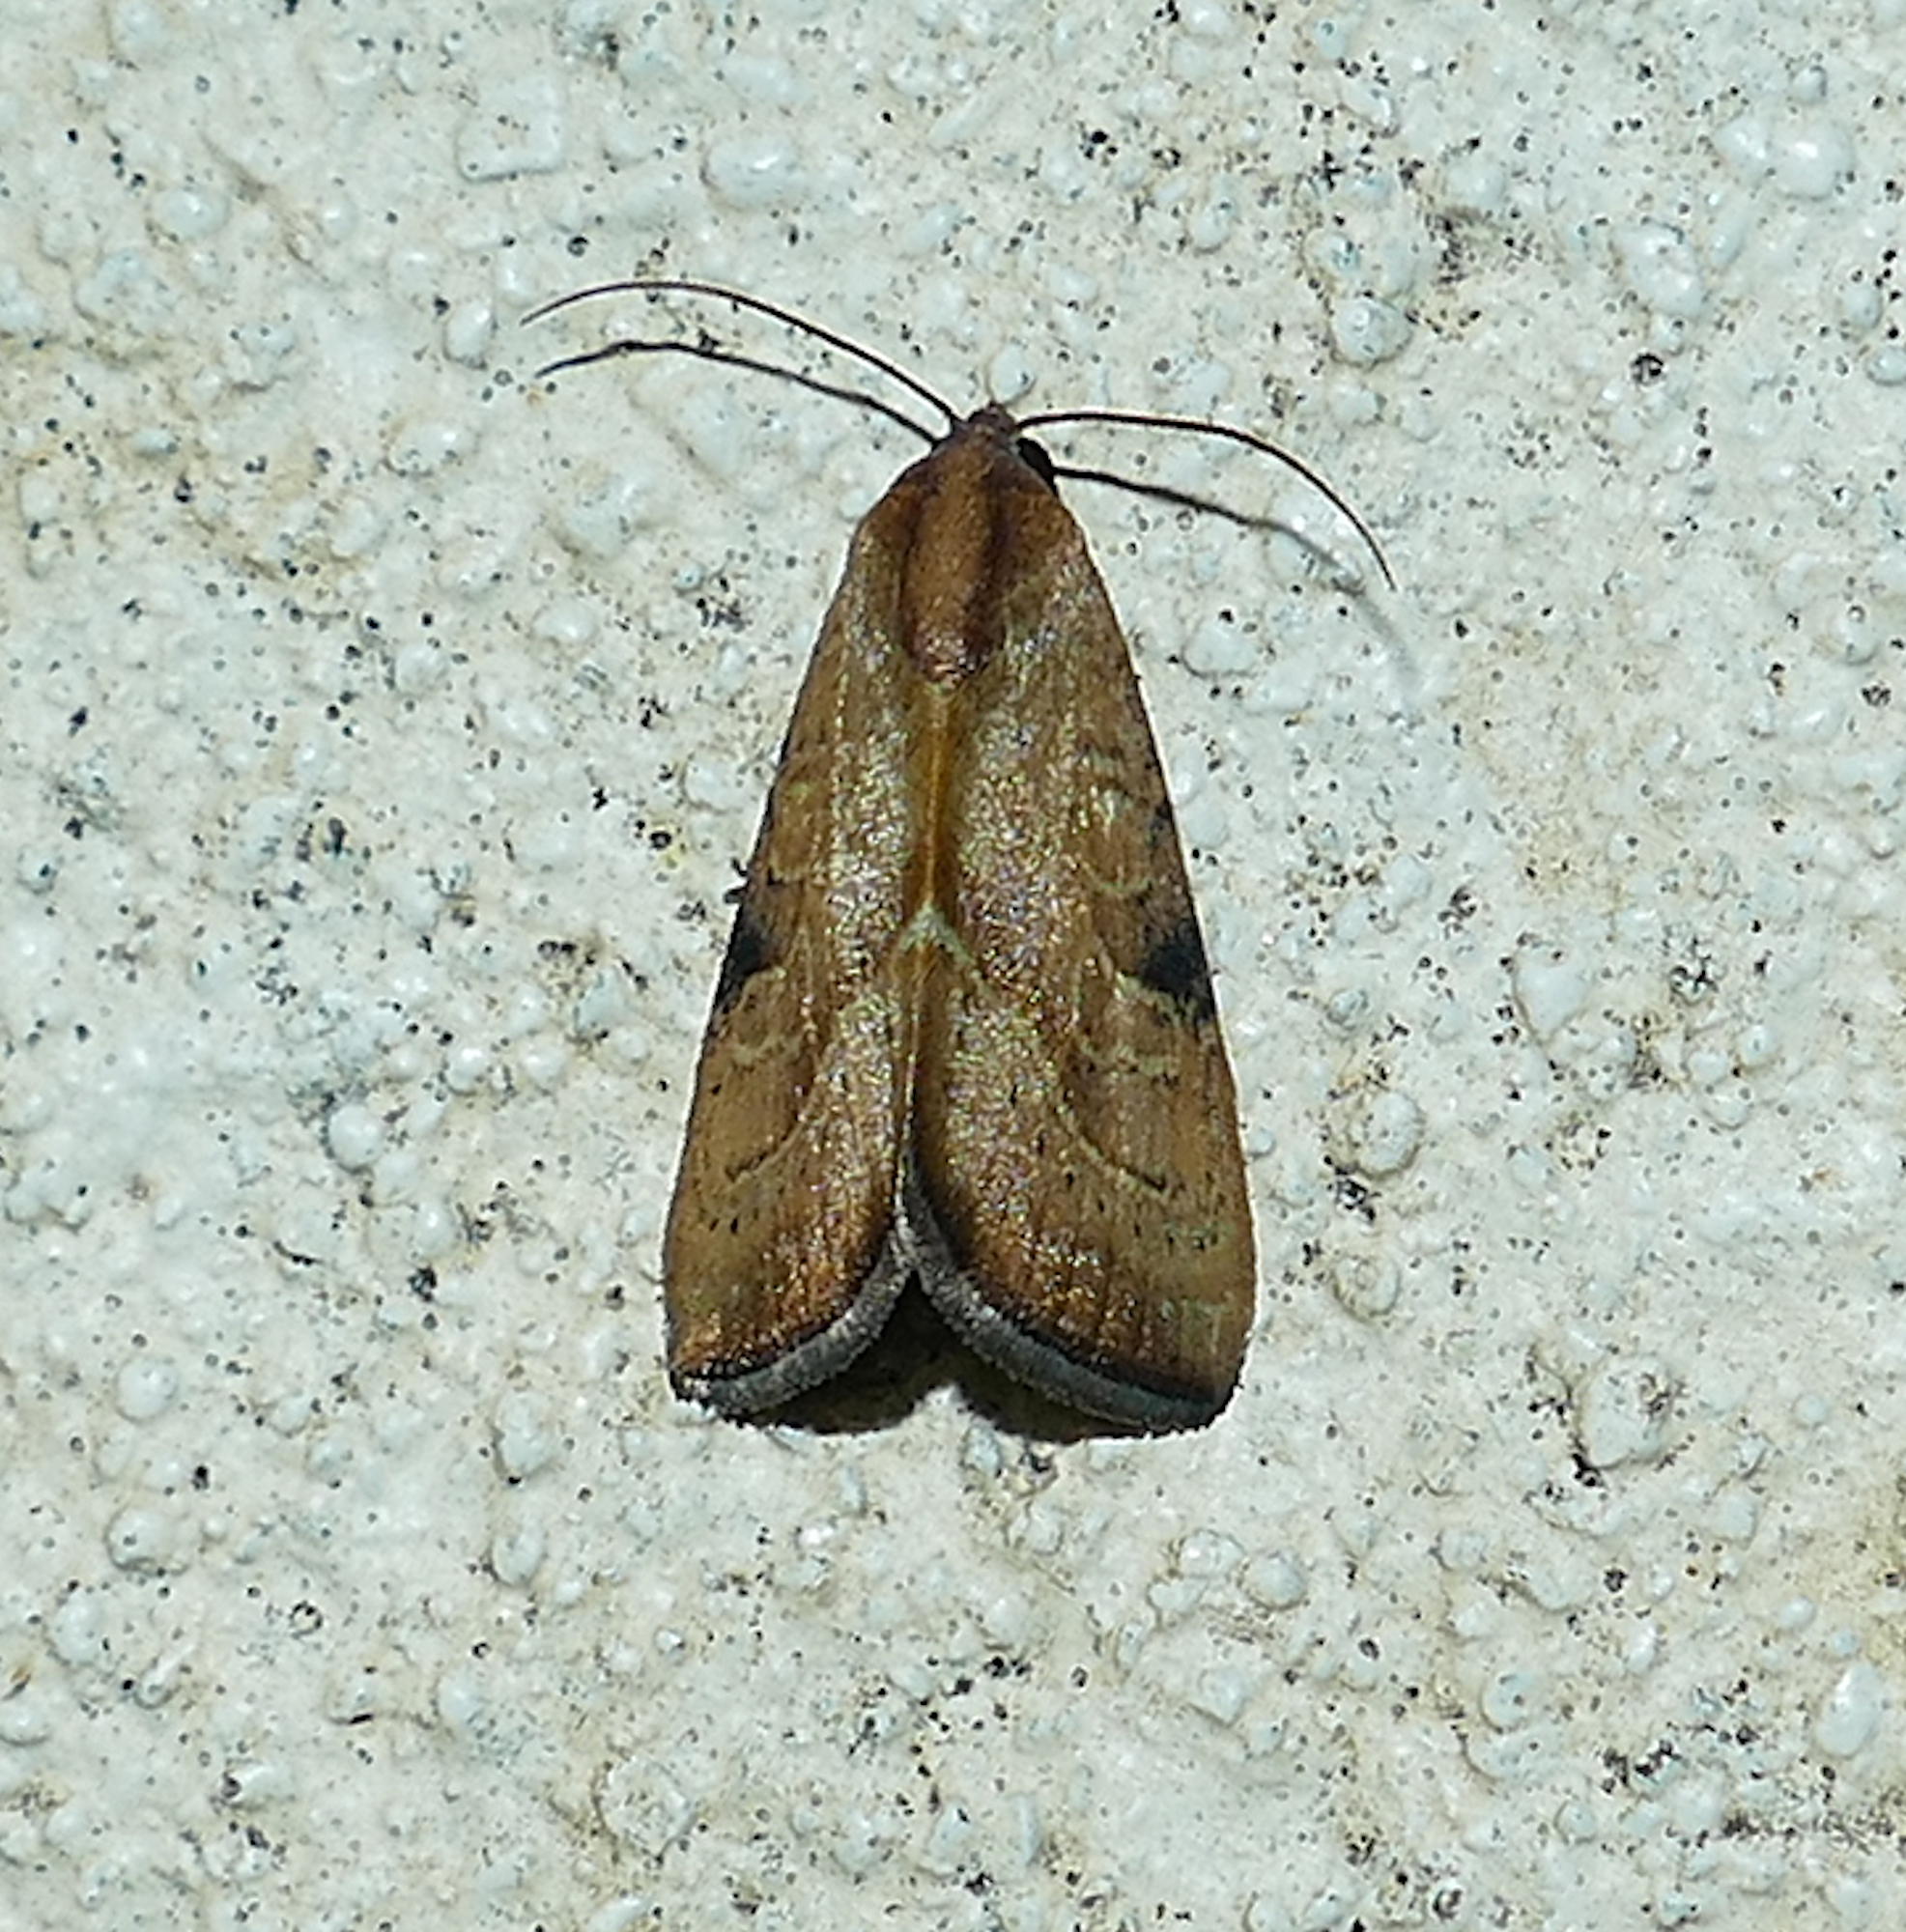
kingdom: Animalia
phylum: Arthropoda
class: Insecta
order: Lepidoptera
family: Noctuidae
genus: Galgula
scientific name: Galgula partita
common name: Wedgeling
